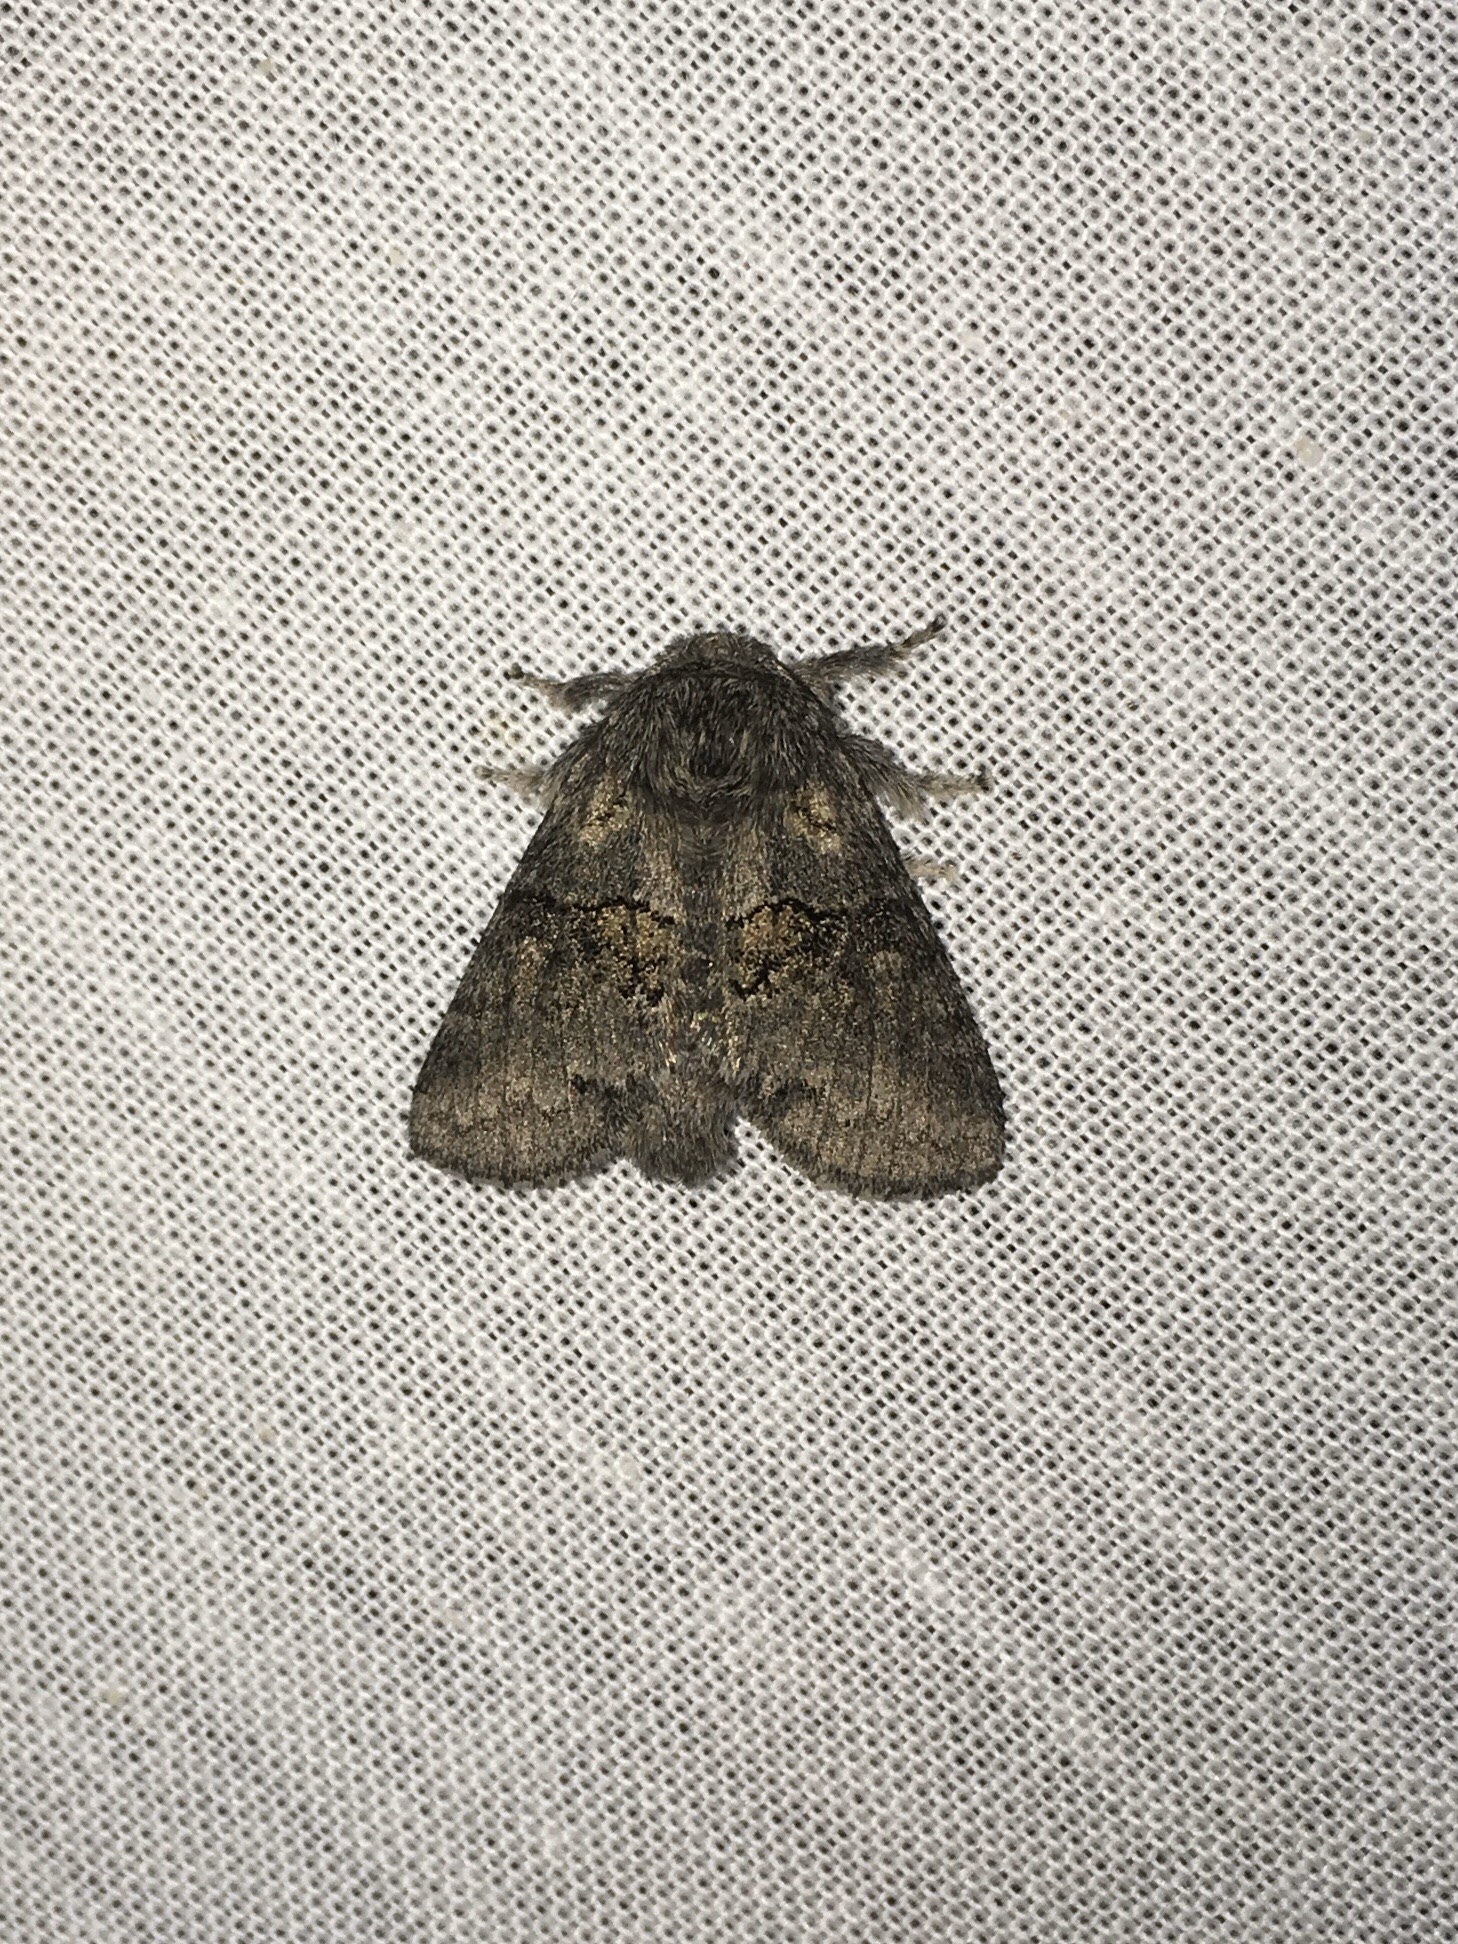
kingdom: Animalia
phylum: Arthropoda
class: Insecta
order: Lepidoptera
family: Notodontidae
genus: Gluphisia
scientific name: Gluphisia septentrionis
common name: Common gluphisia
